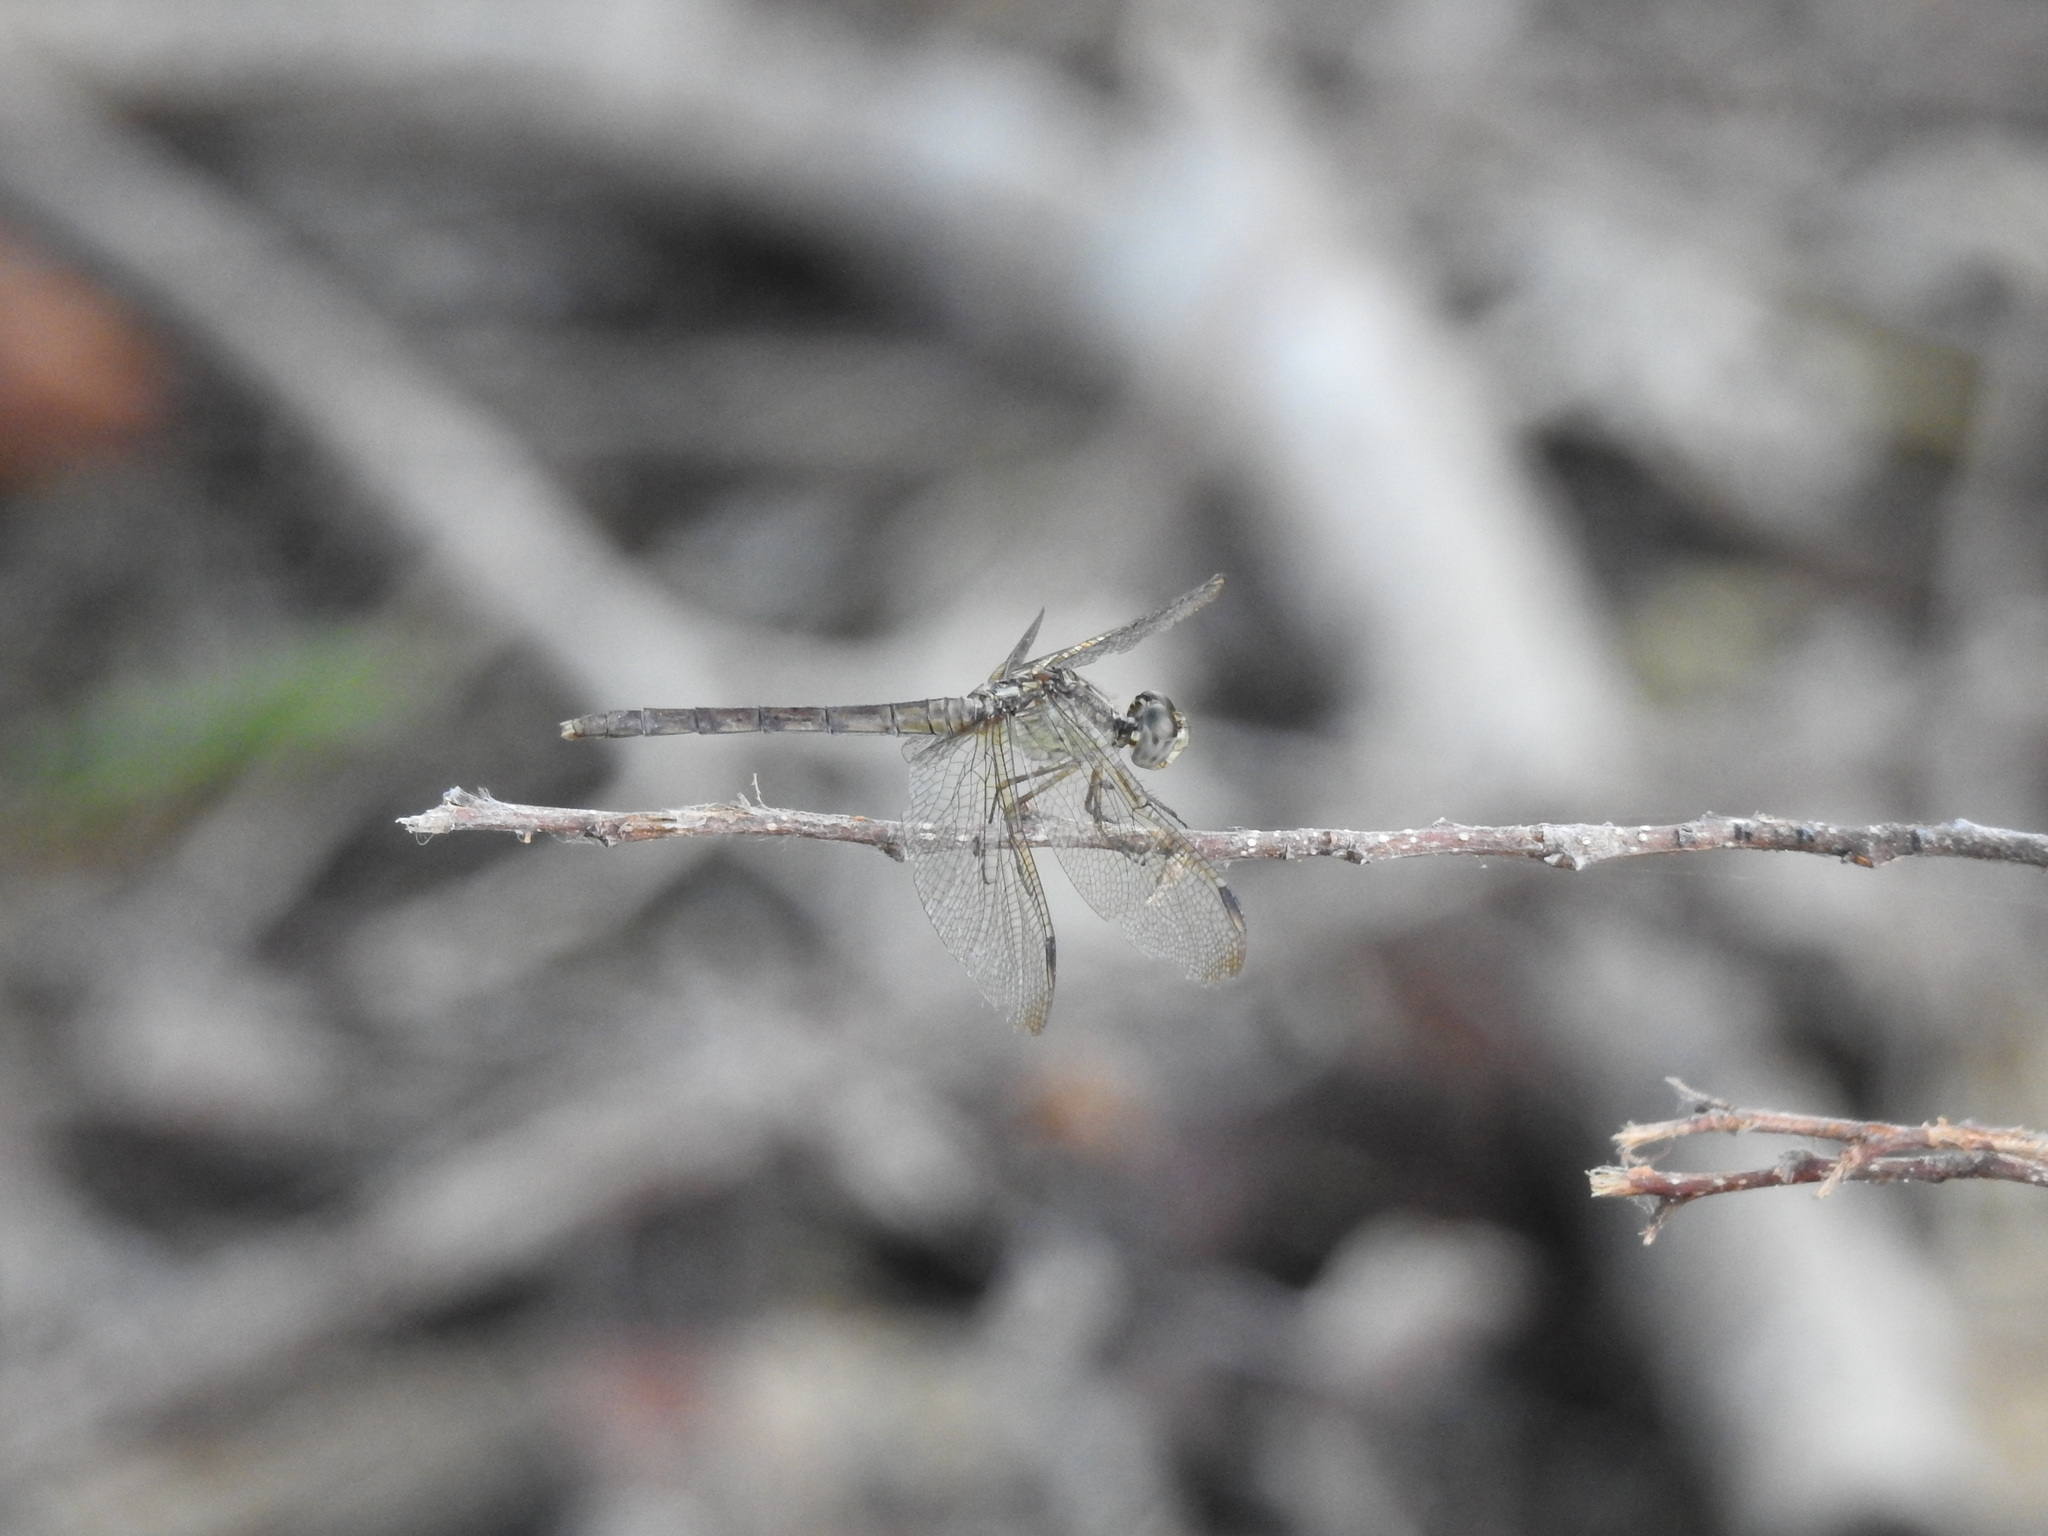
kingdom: Animalia
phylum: Arthropoda
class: Insecta
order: Odonata
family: Libellulidae
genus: Erythrodiplax
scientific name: Erythrodiplax umbrata
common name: Band-winged dragonlet
